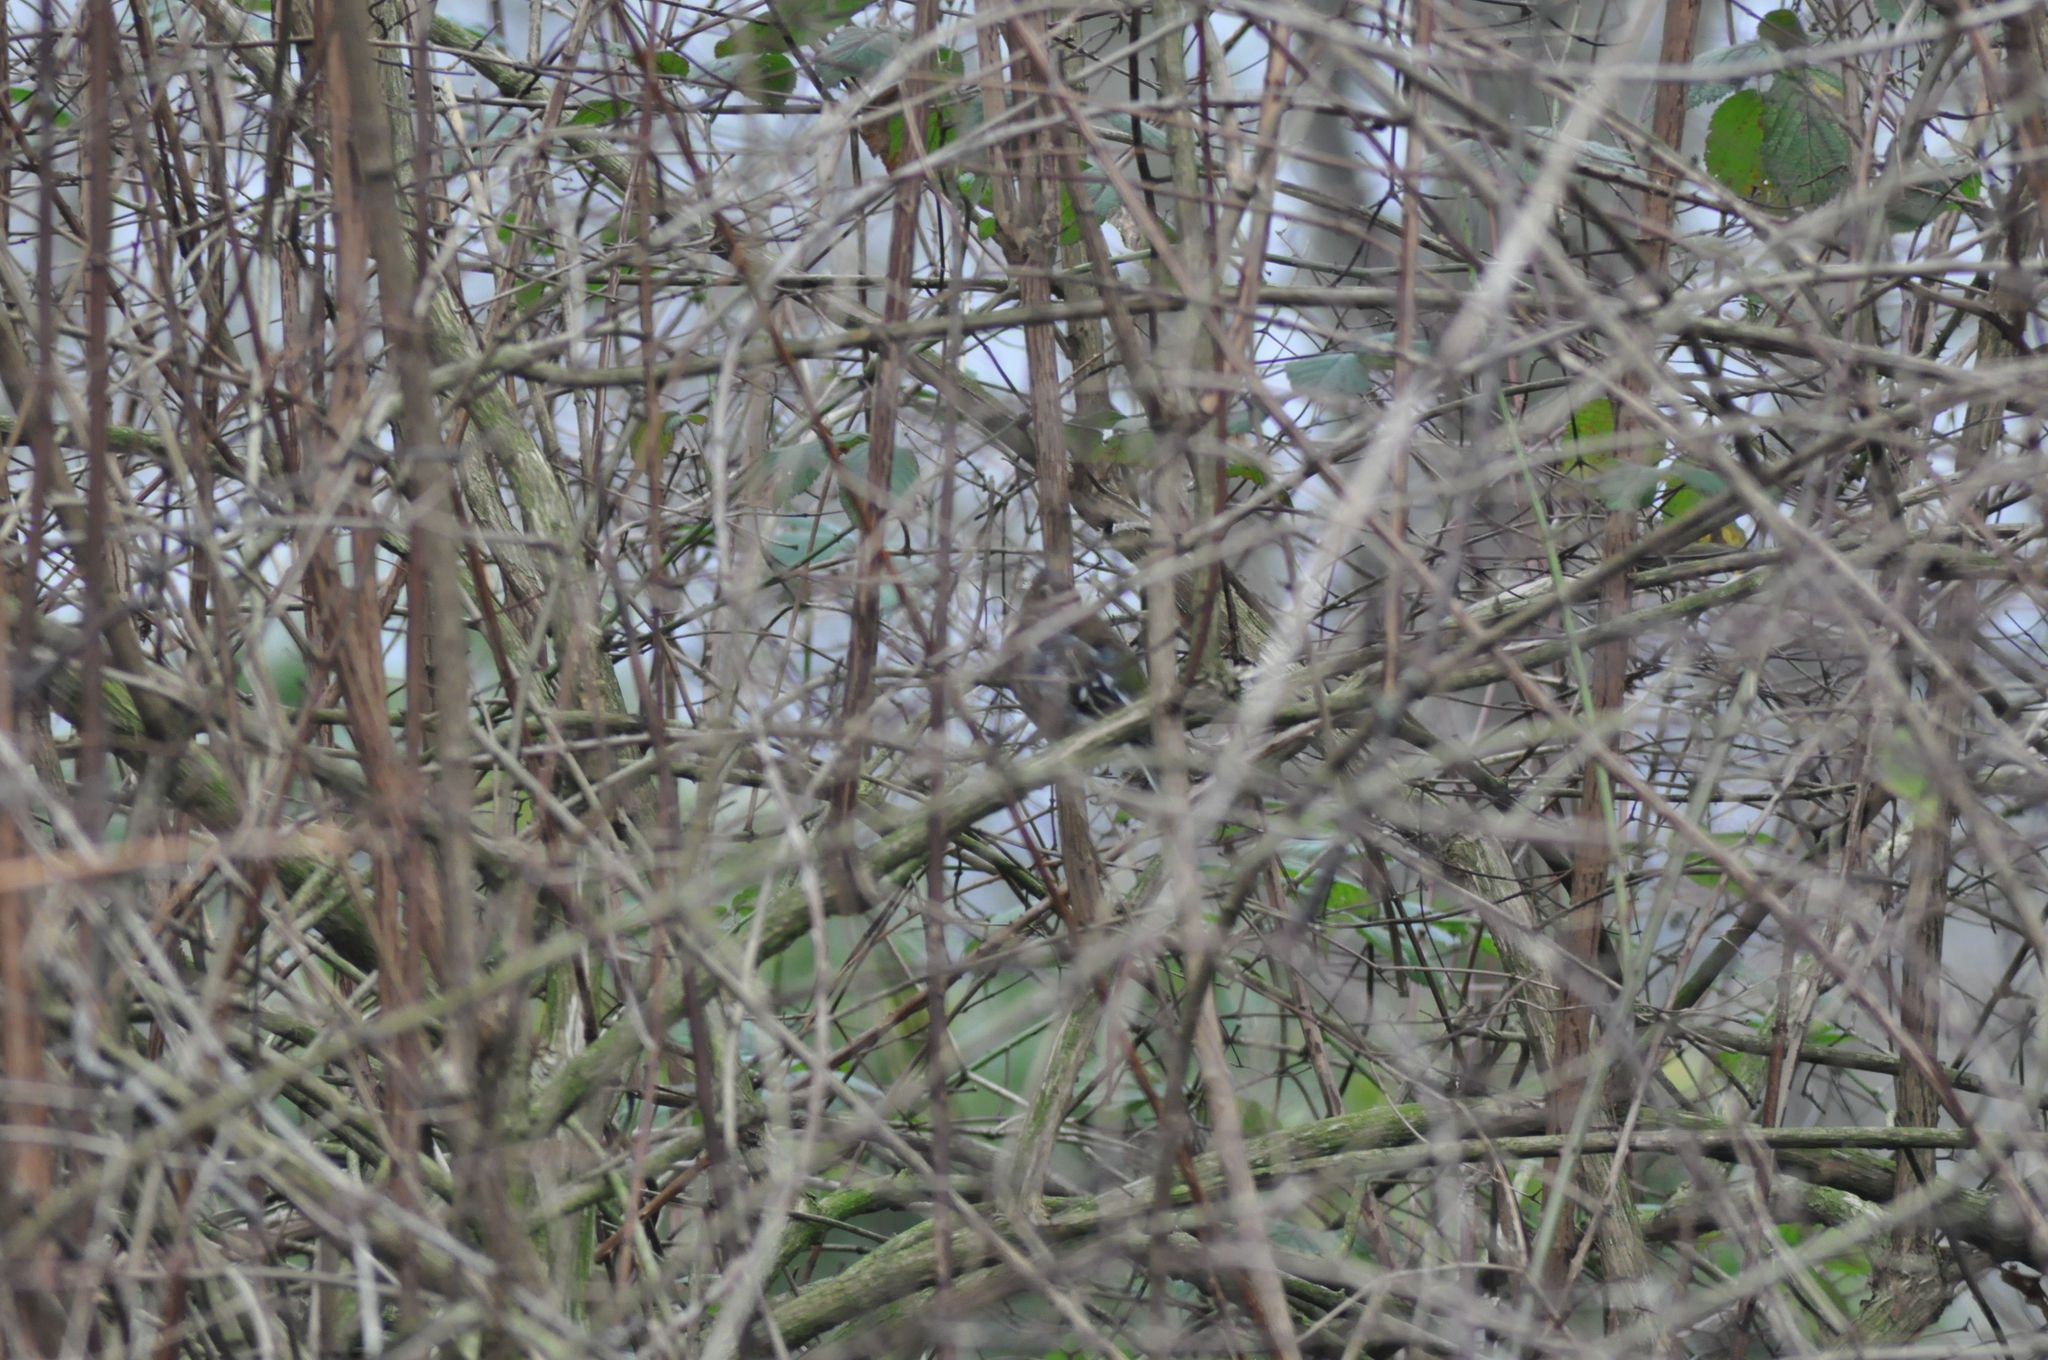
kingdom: Animalia
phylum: Chordata
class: Aves
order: Passeriformes
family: Fringillidae
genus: Fringilla
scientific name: Fringilla coelebs
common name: Common chaffinch
